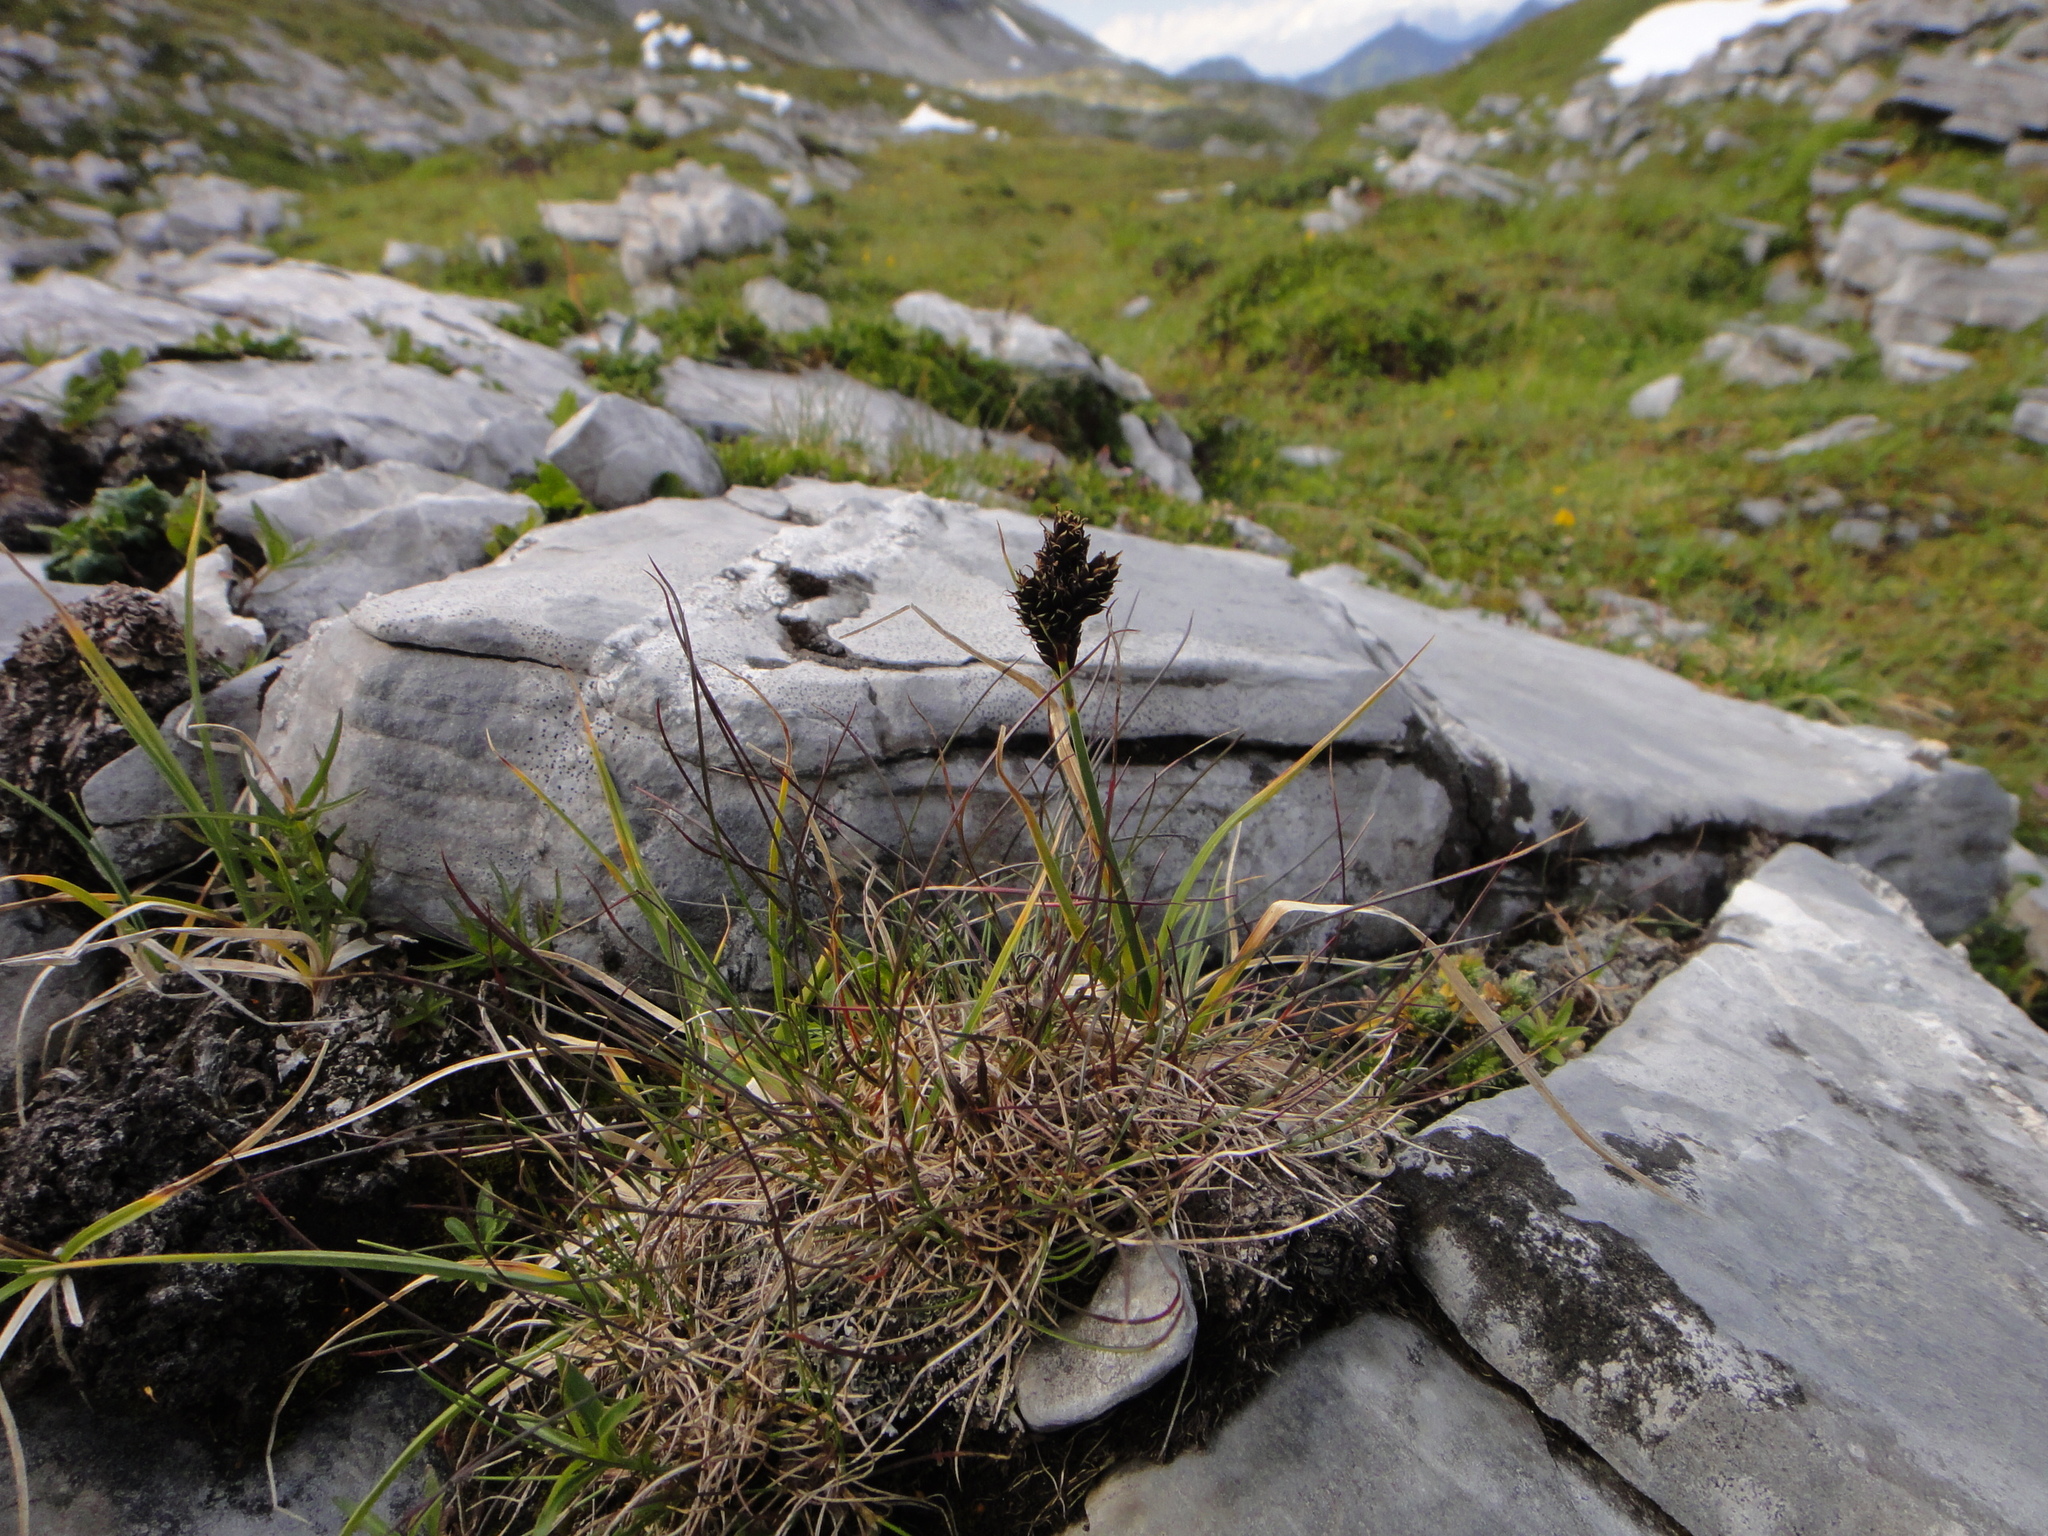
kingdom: Plantae
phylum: Tracheophyta
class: Liliopsida
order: Poales
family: Cyperaceae
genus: Carex
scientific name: Carex parviflora
